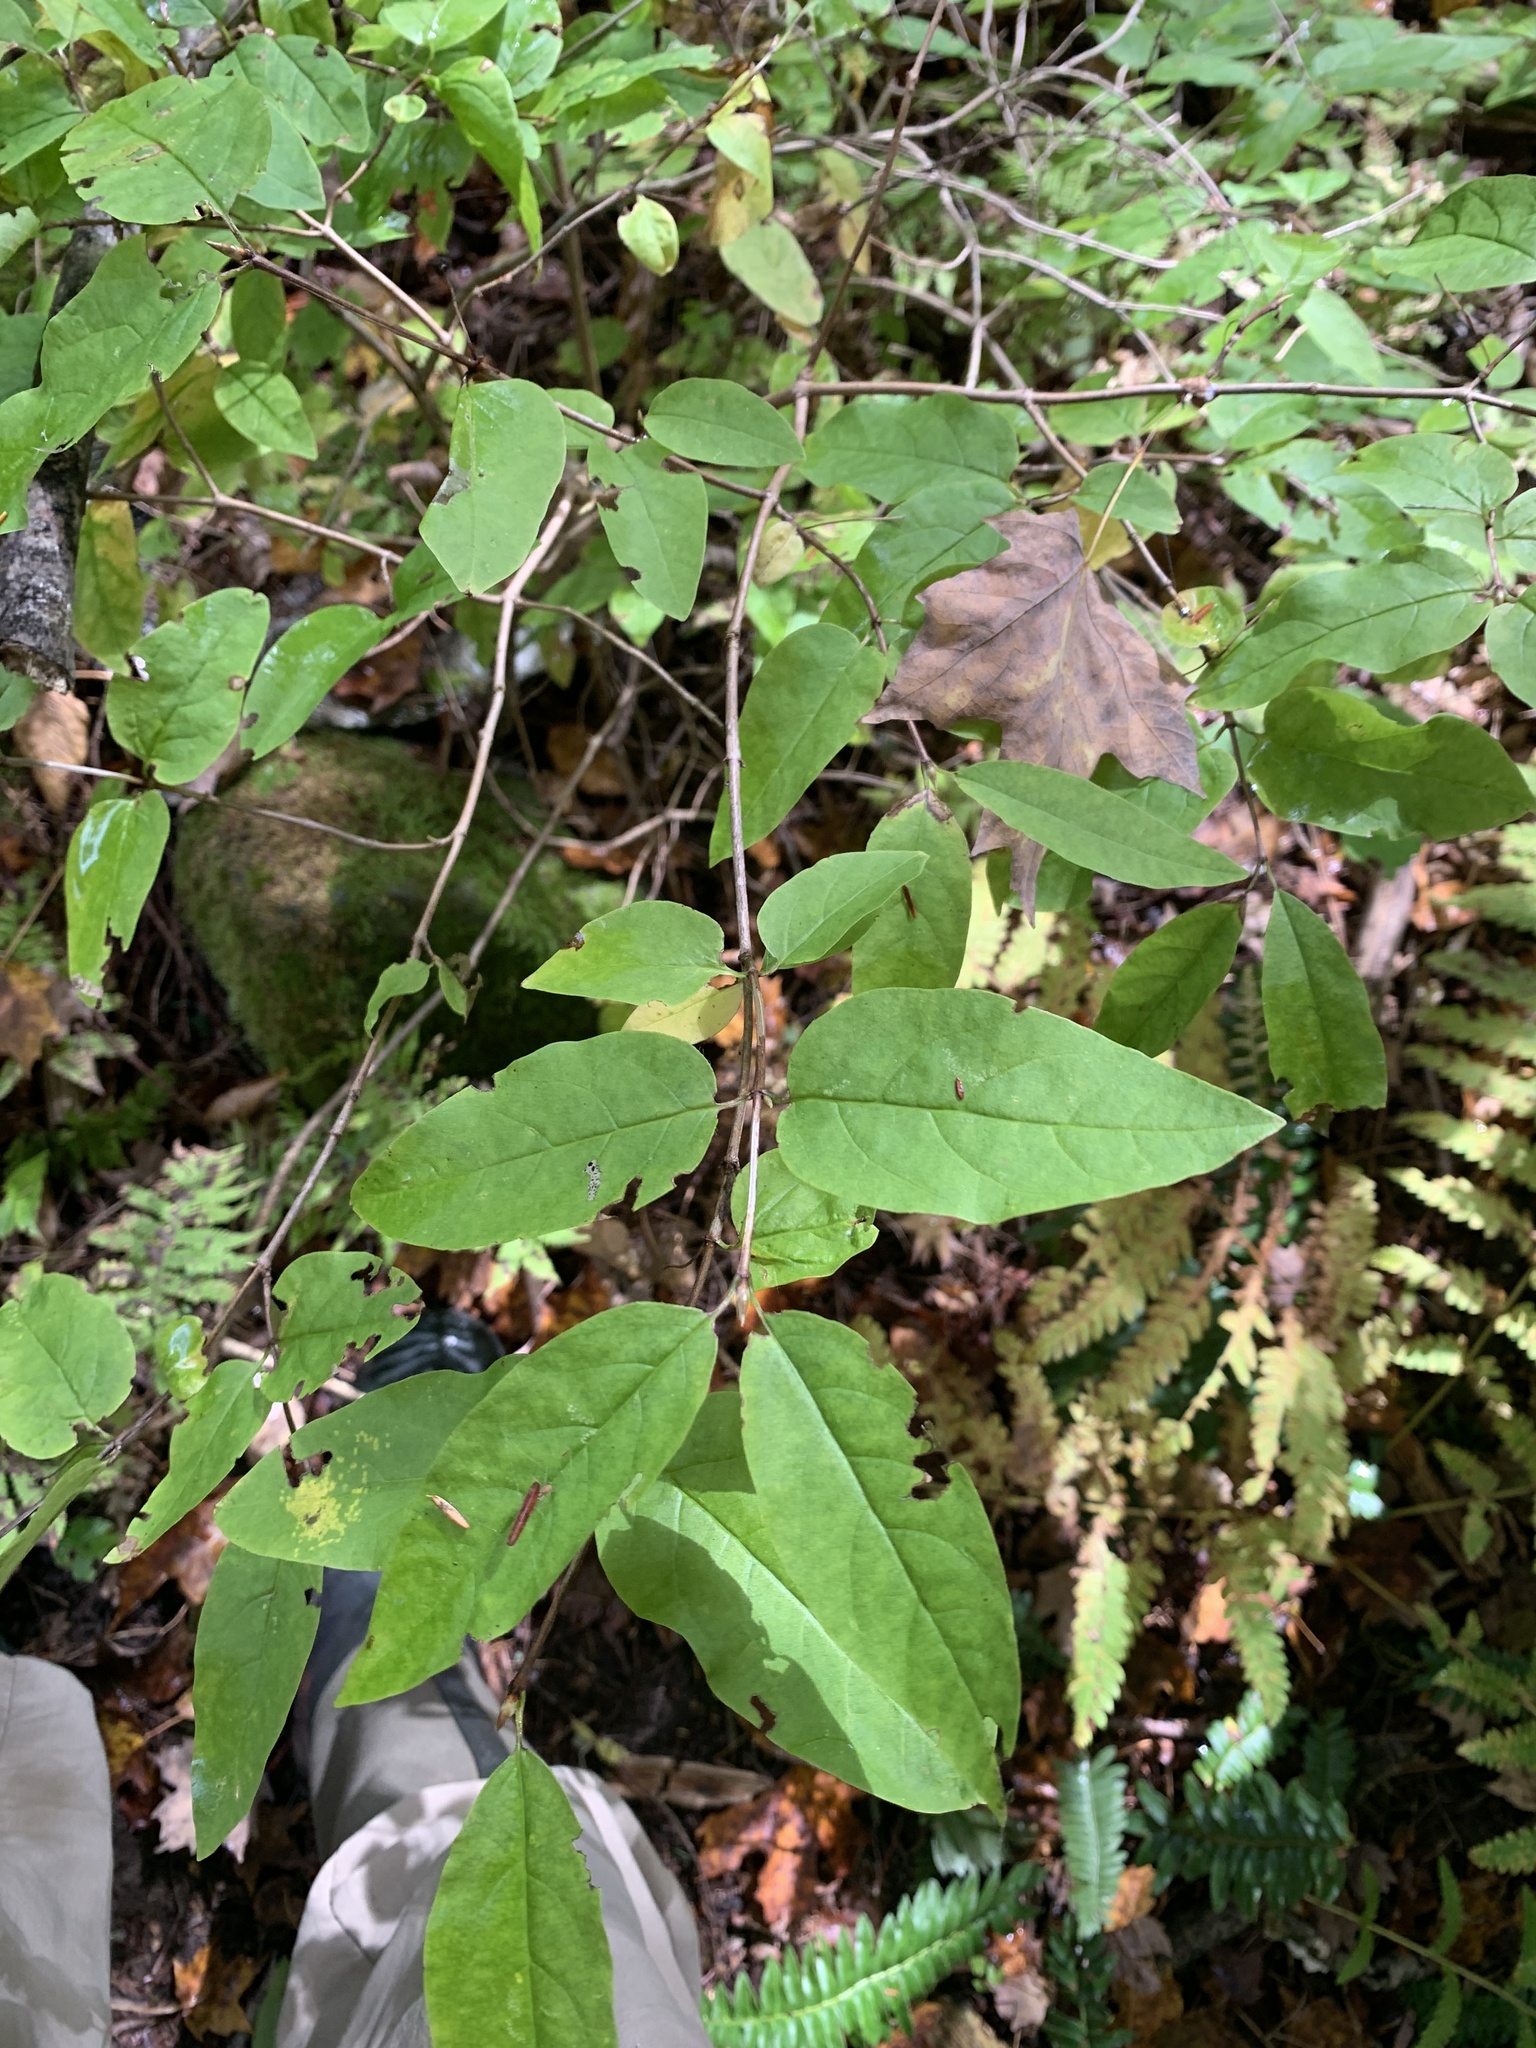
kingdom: Plantae
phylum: Tracheophyta
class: Magnoliopsida
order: Dipsacales
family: Caprifoliaceae
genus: Lonicera
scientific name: Lonicera canadensis
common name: American fly-honeysuckle
